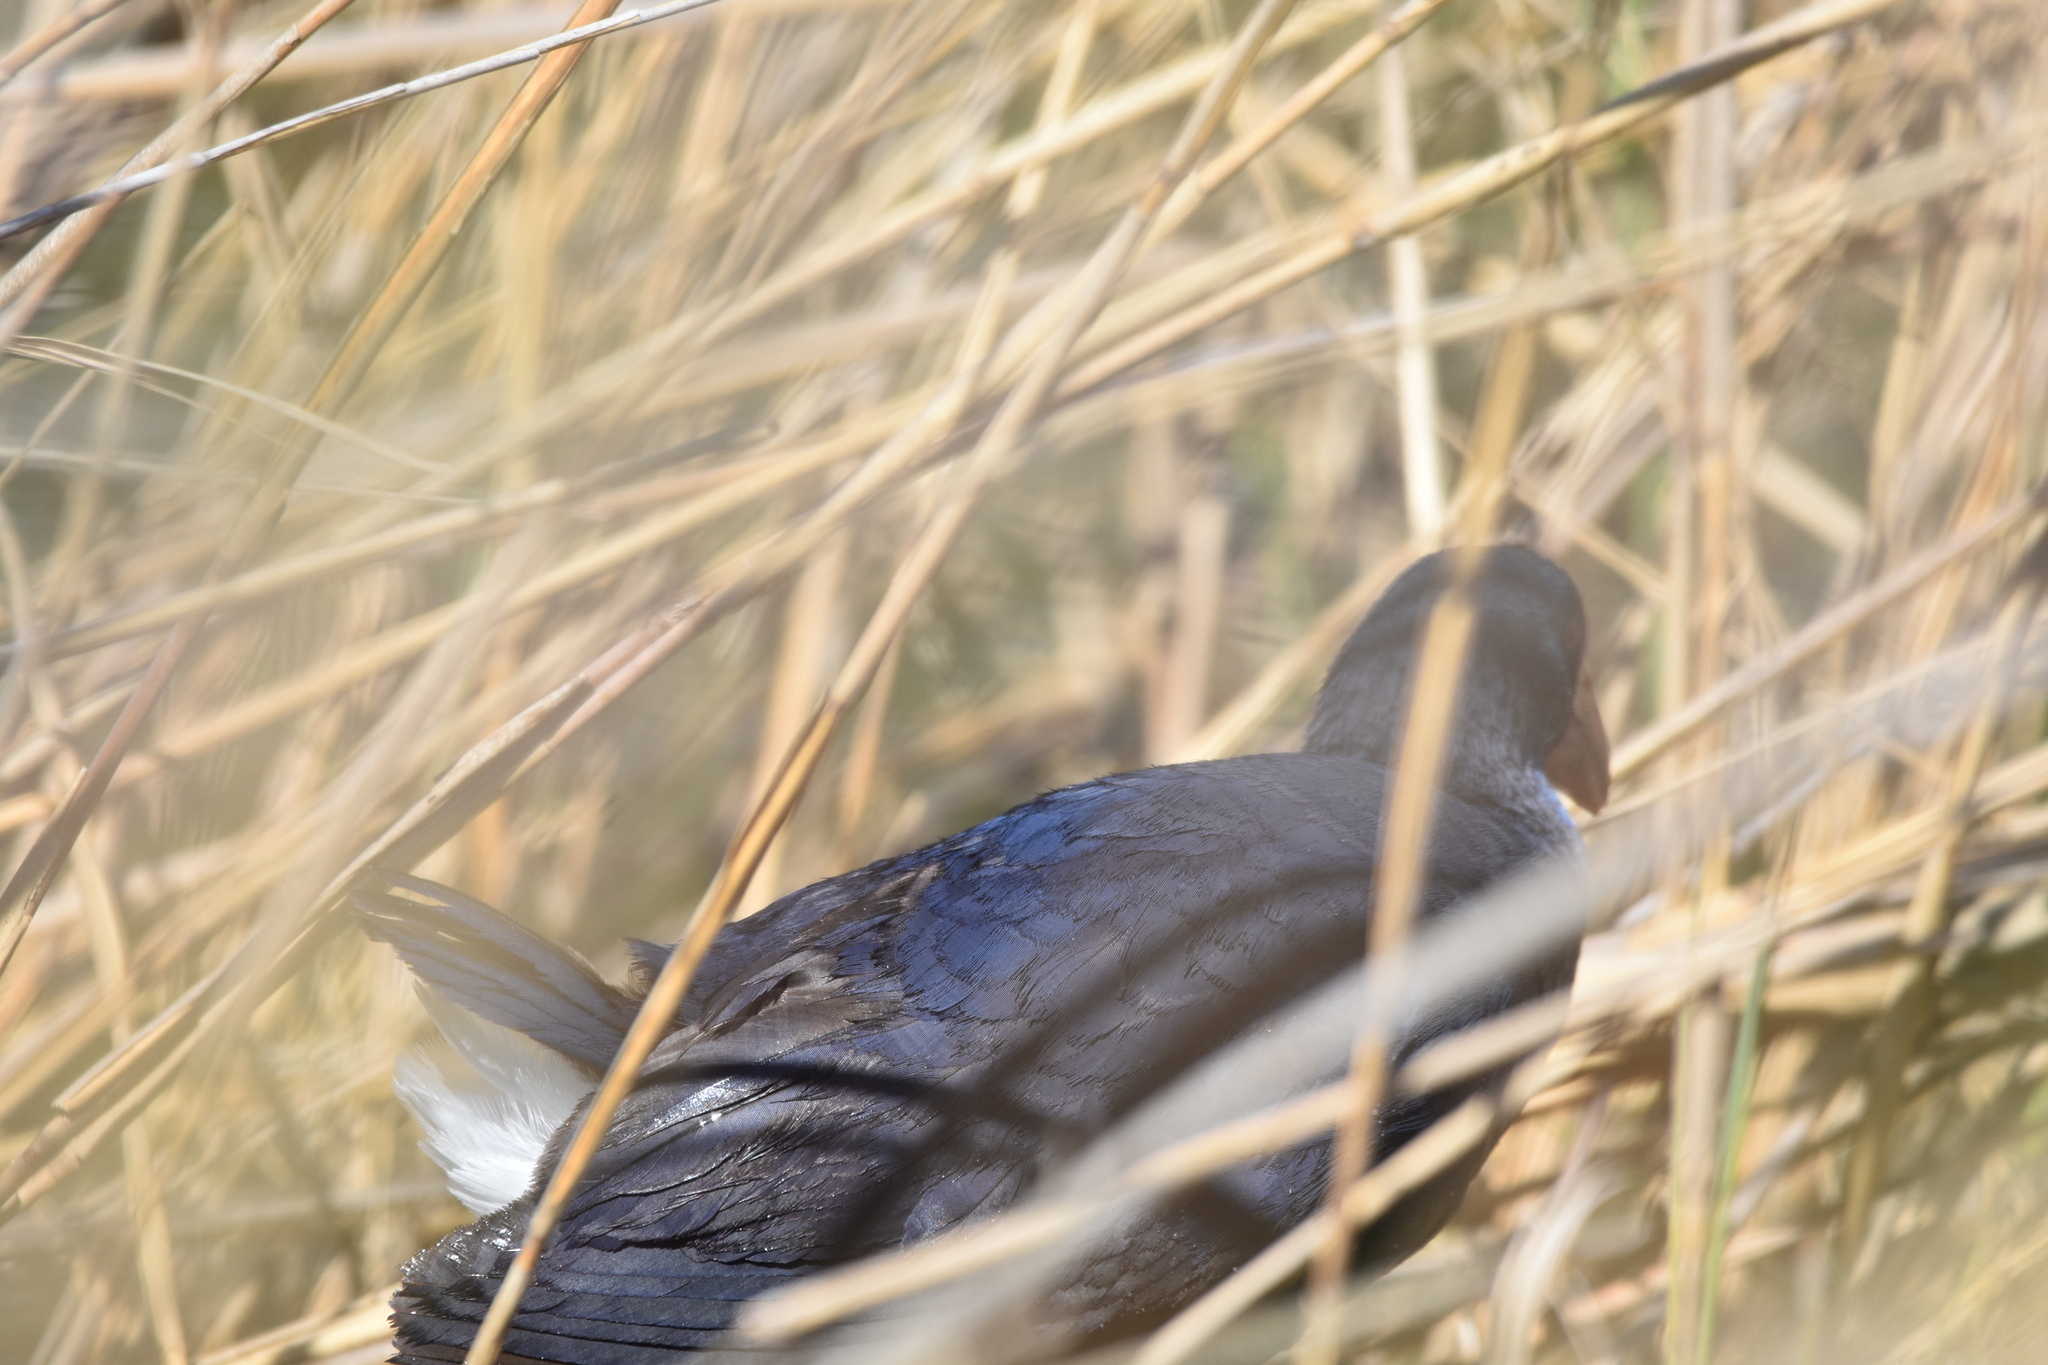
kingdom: Animalia
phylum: Chordata
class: Aves
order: Gruiformes
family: Rallidae
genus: Porphyrio
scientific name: Porphyrio porphyrio
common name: Purple swamphen
